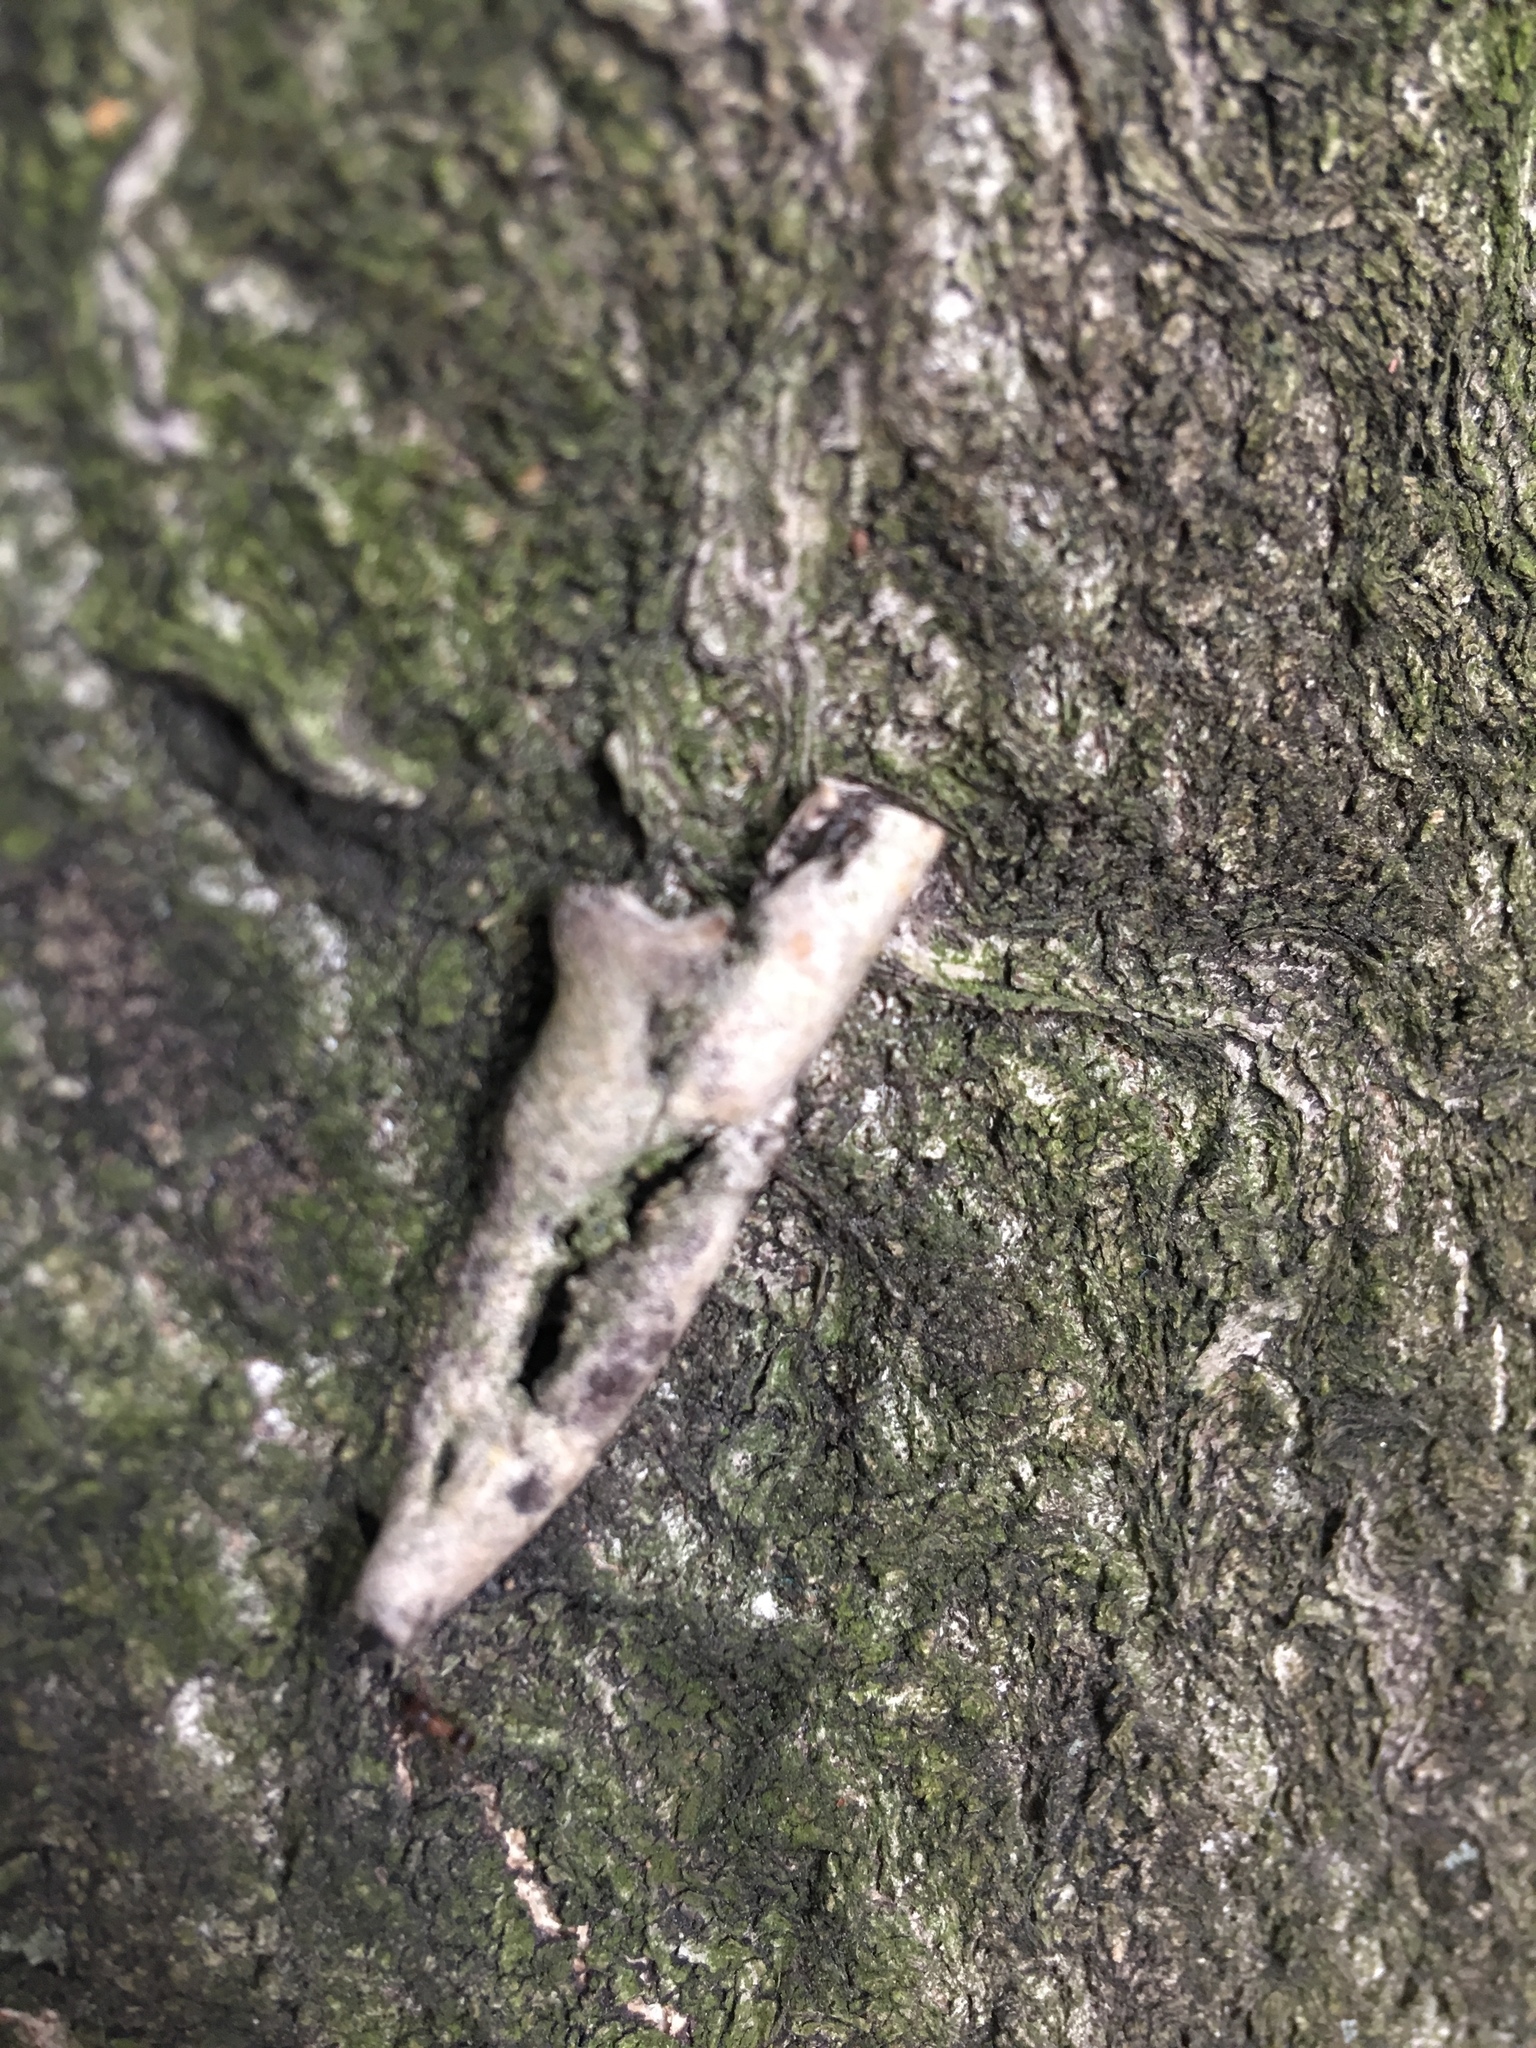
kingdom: Plantae
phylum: Tracheophyta
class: Magnoliopsida
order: Sapindales
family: Simaroubaceae
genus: Ailanthus
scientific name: Ailanthus altissima
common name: Tree-of-heaven
